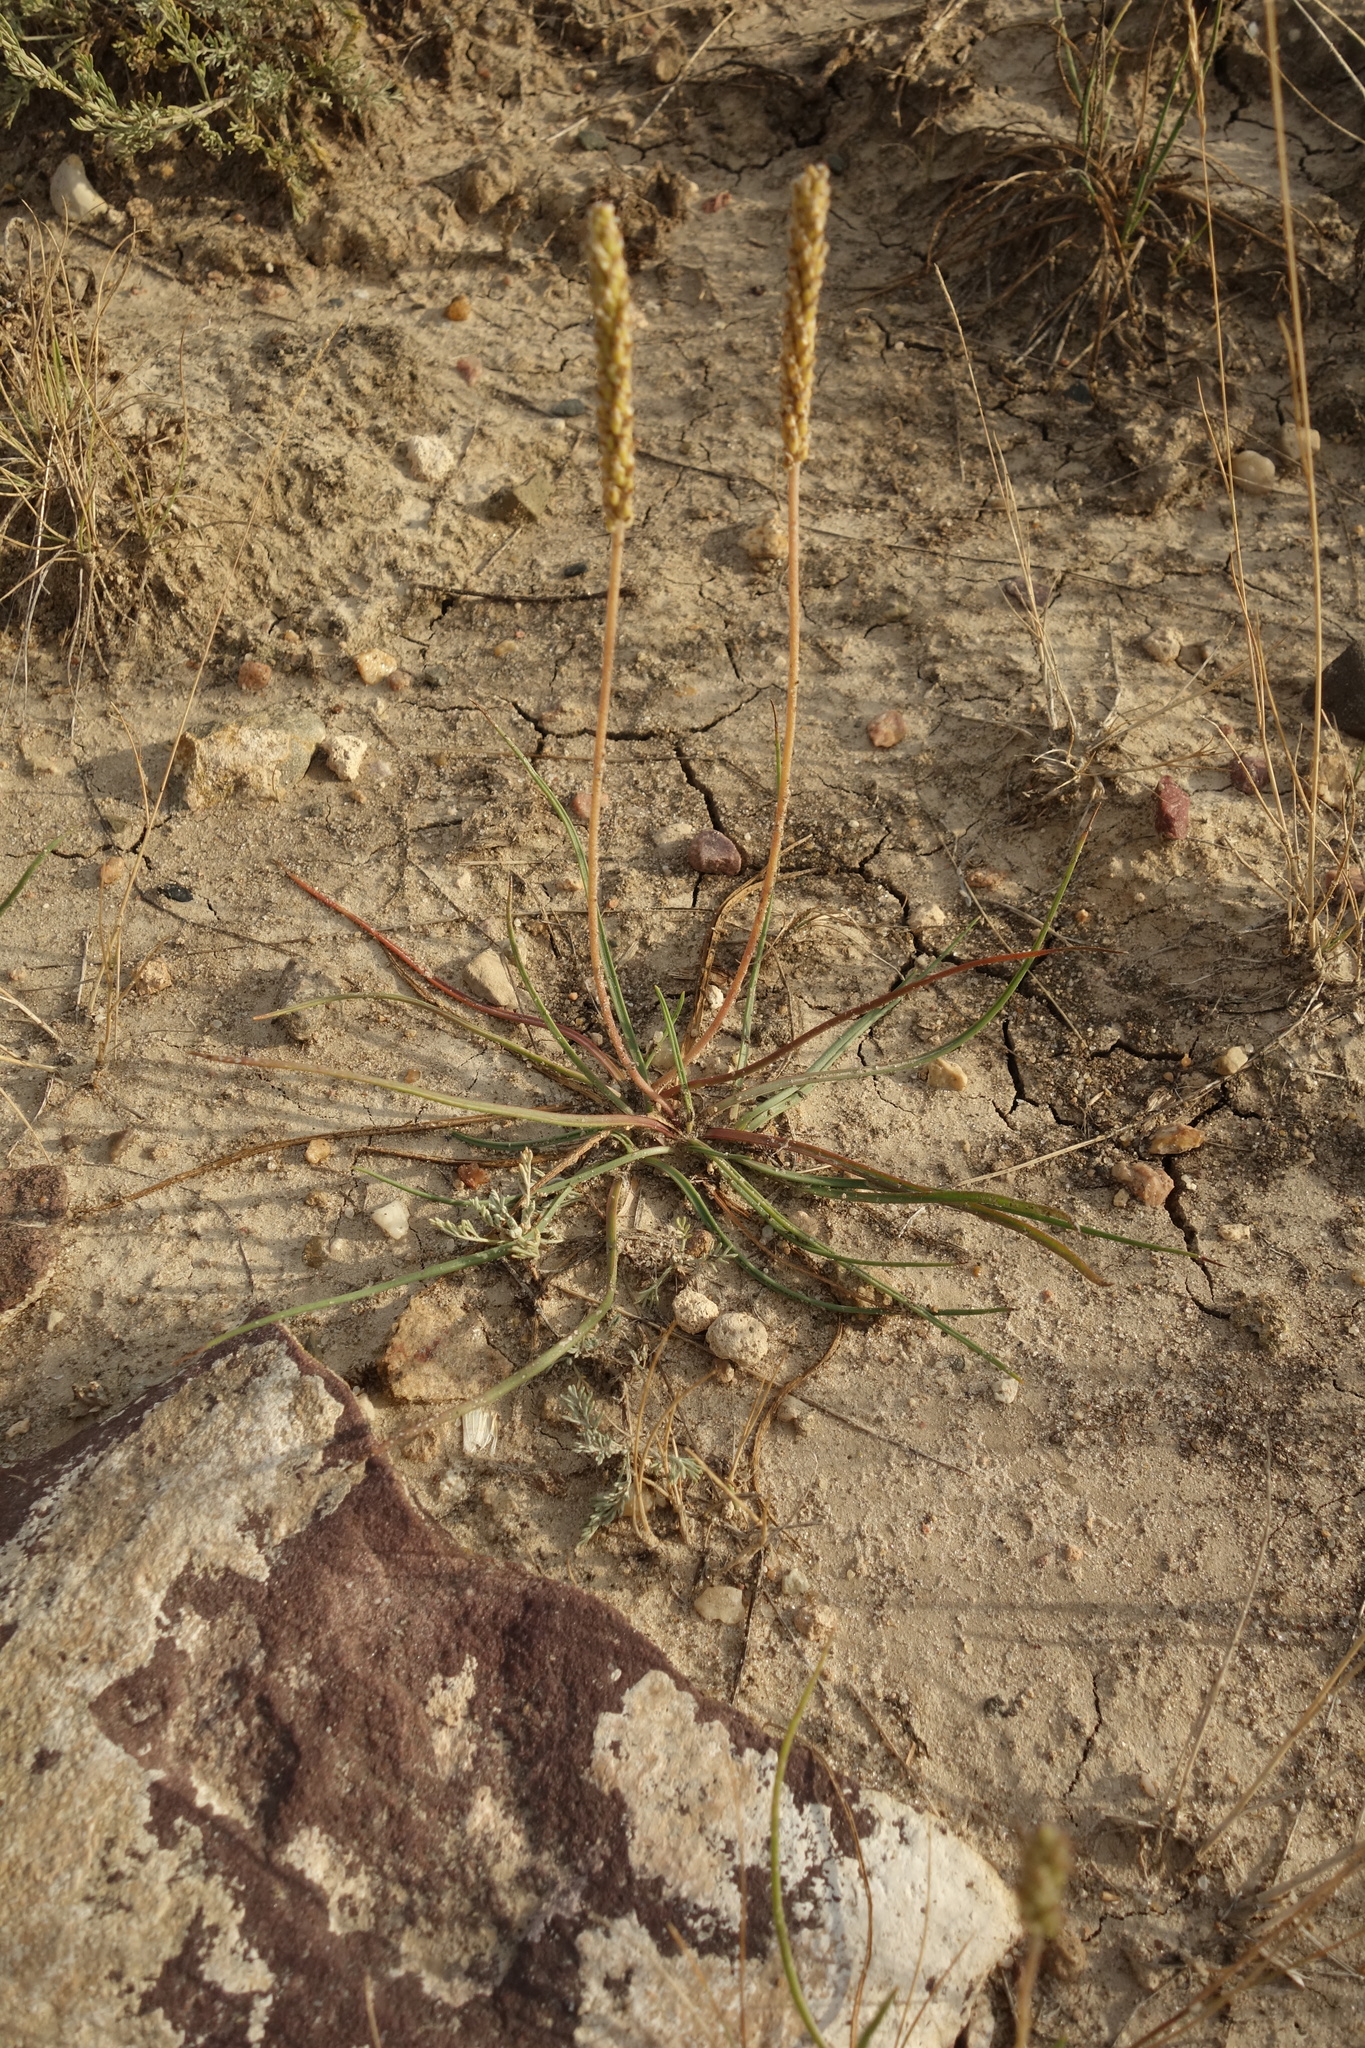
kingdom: Plantae
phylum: Tracheophyta
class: Magnoliopsida
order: Lamiales
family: Plantaginaceae
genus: Plantago
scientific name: Plantago salsa
